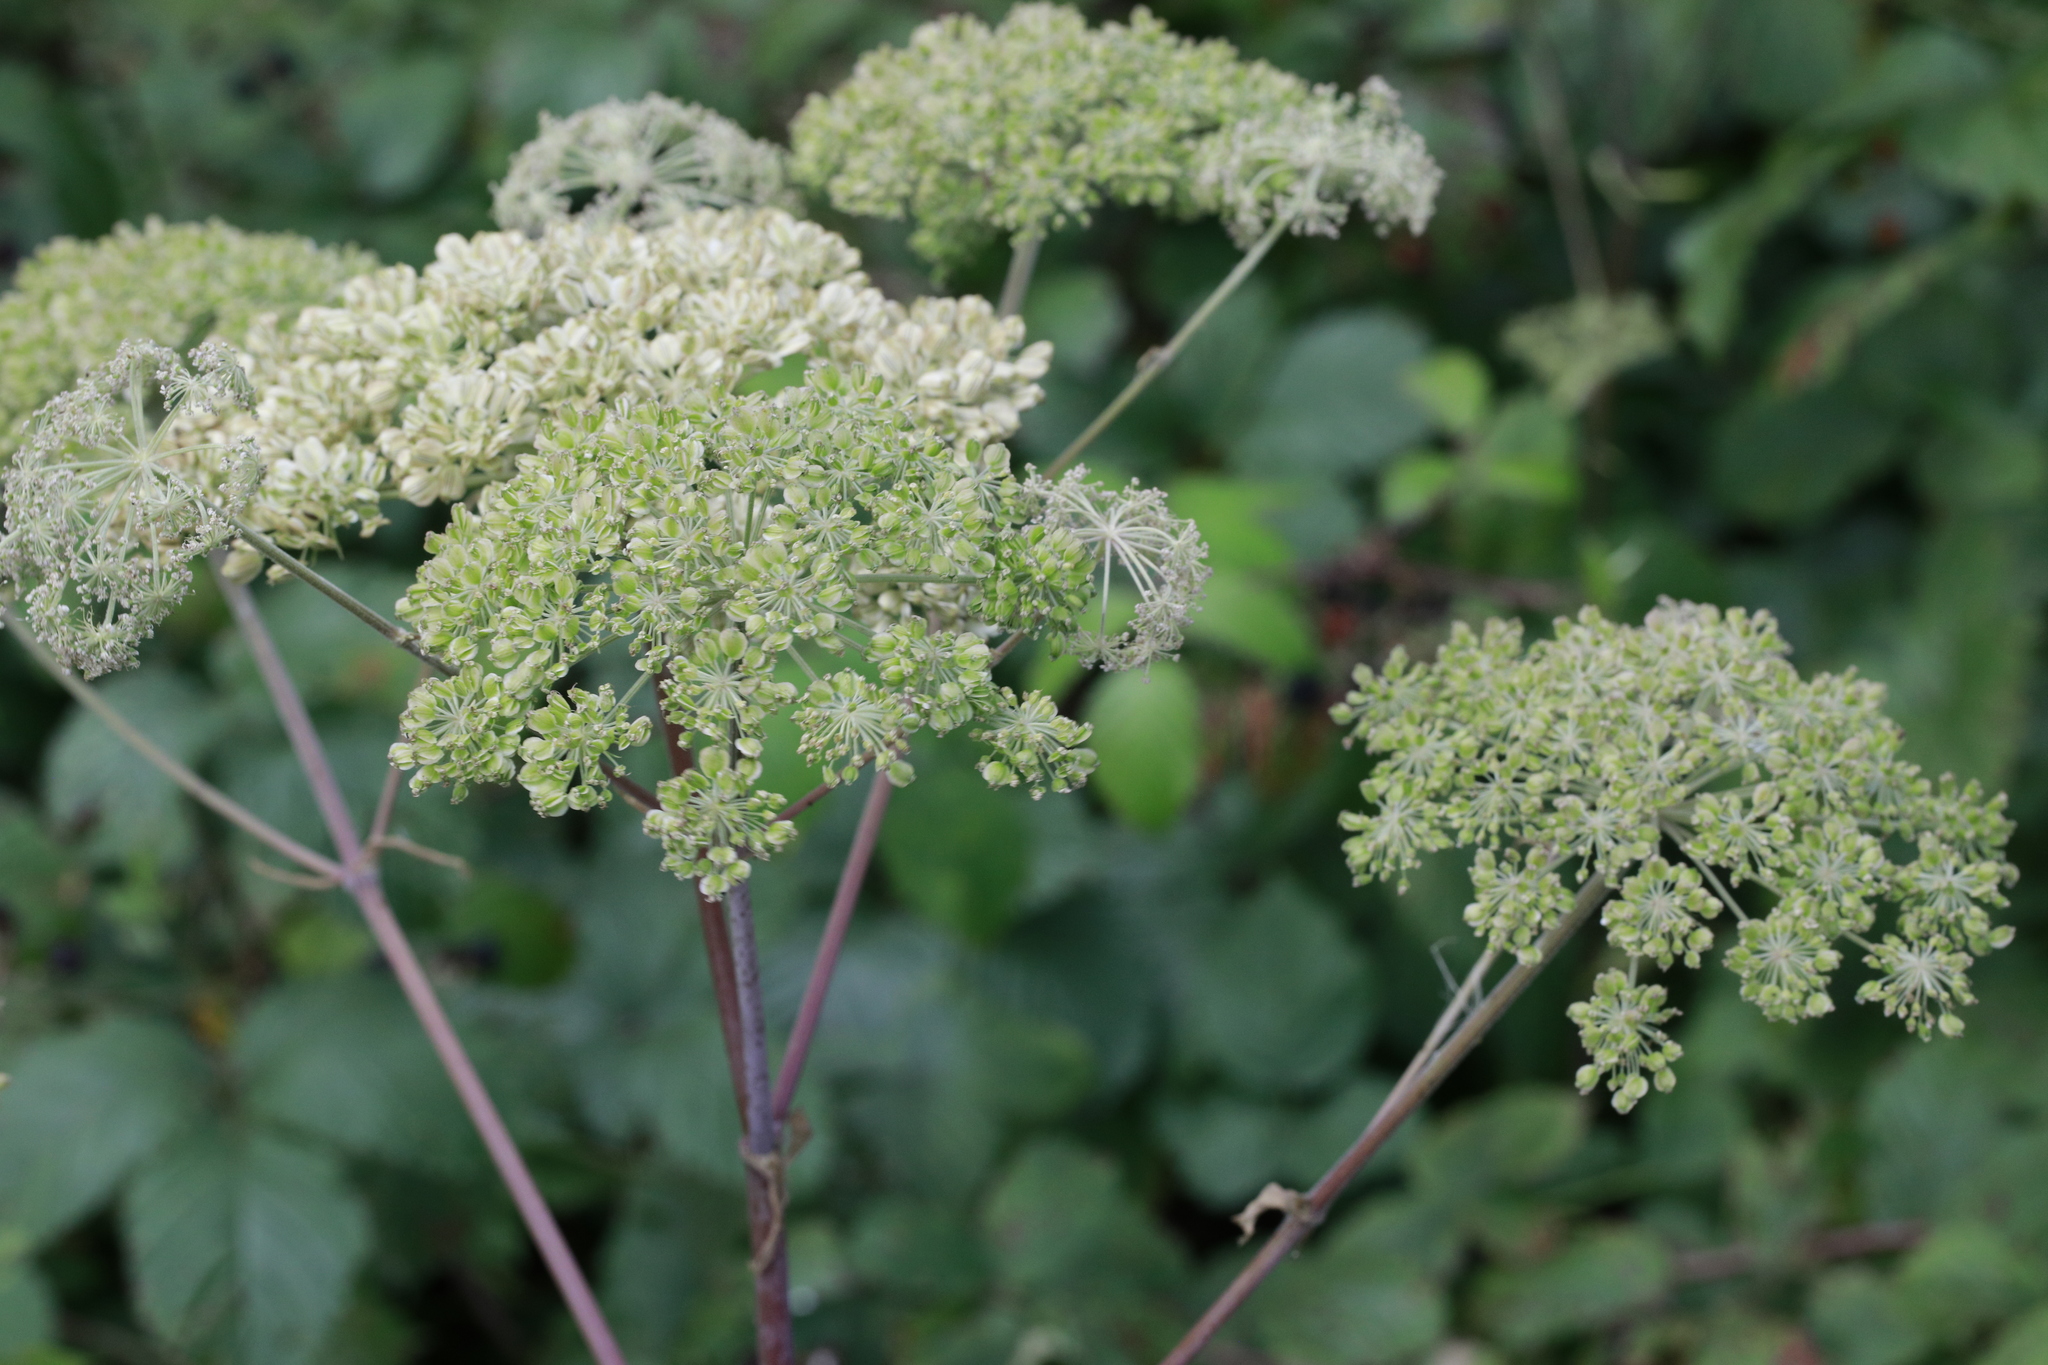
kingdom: Plantae
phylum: Tracheophyta
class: Magnoliopsida
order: Apiales
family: Apiaceae
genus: Angelica
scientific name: Angelica sylvestris
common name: Wild angelica
